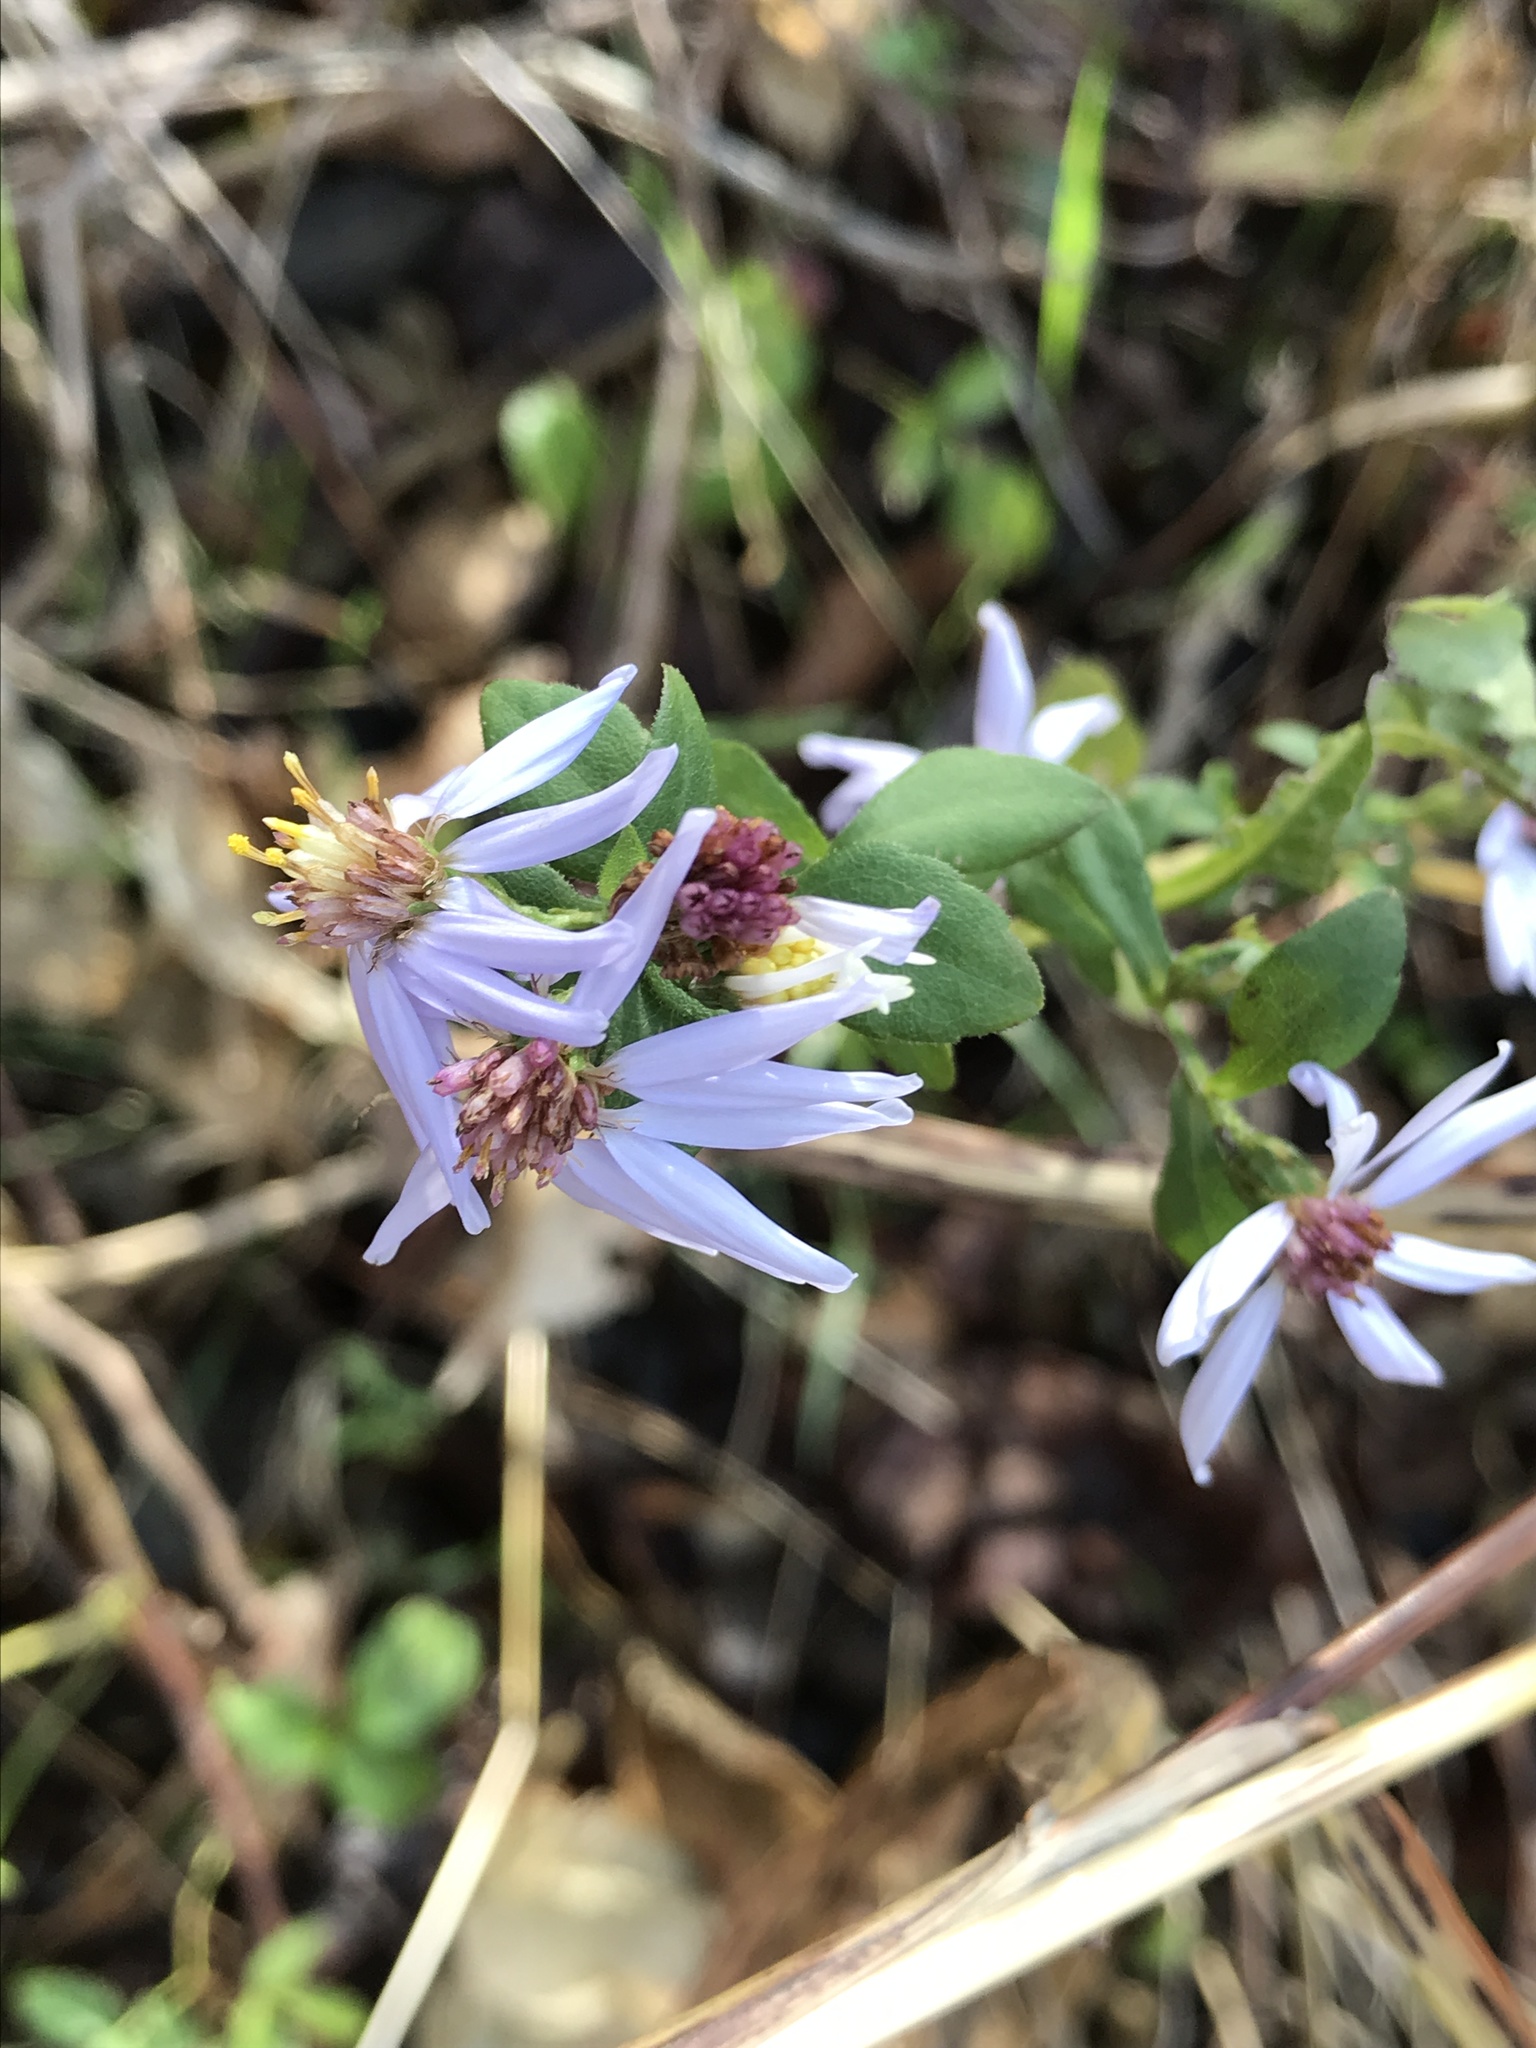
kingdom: Plantae
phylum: Tracheophyta
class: Magnoliopsida
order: Asterales
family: Asteraceae
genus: Symphyotrichum
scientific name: Symphyotrichum drummondii
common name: Drummond's aster
